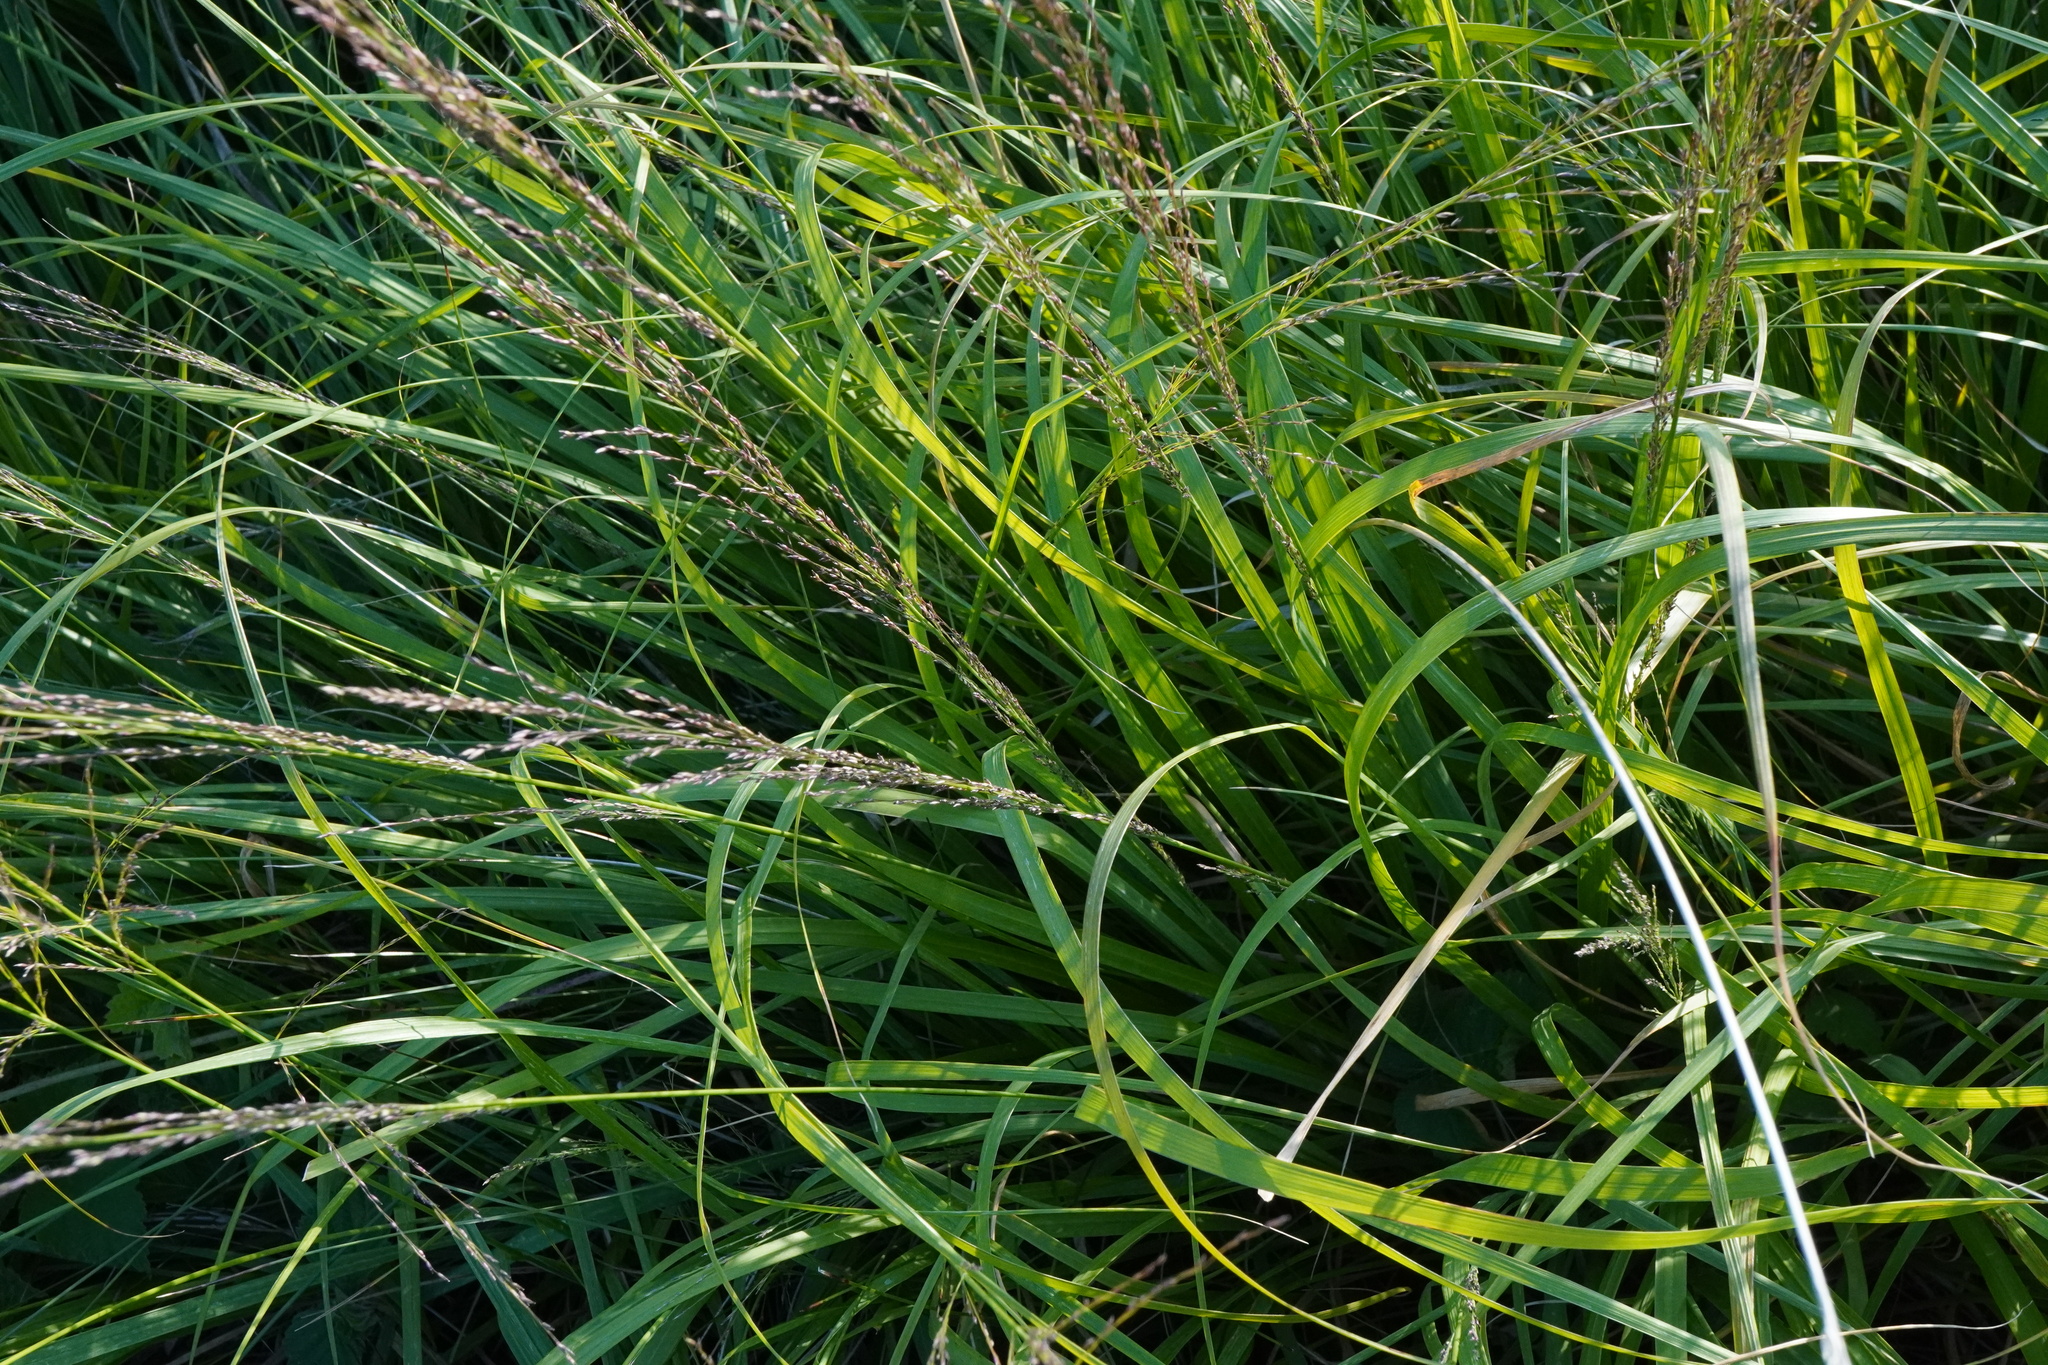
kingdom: Plantae
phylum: Tracheophyta
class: Liliopsida
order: Poales
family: Poaceae
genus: Molinia
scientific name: Molinia caerulea
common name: Purple moor-grass
